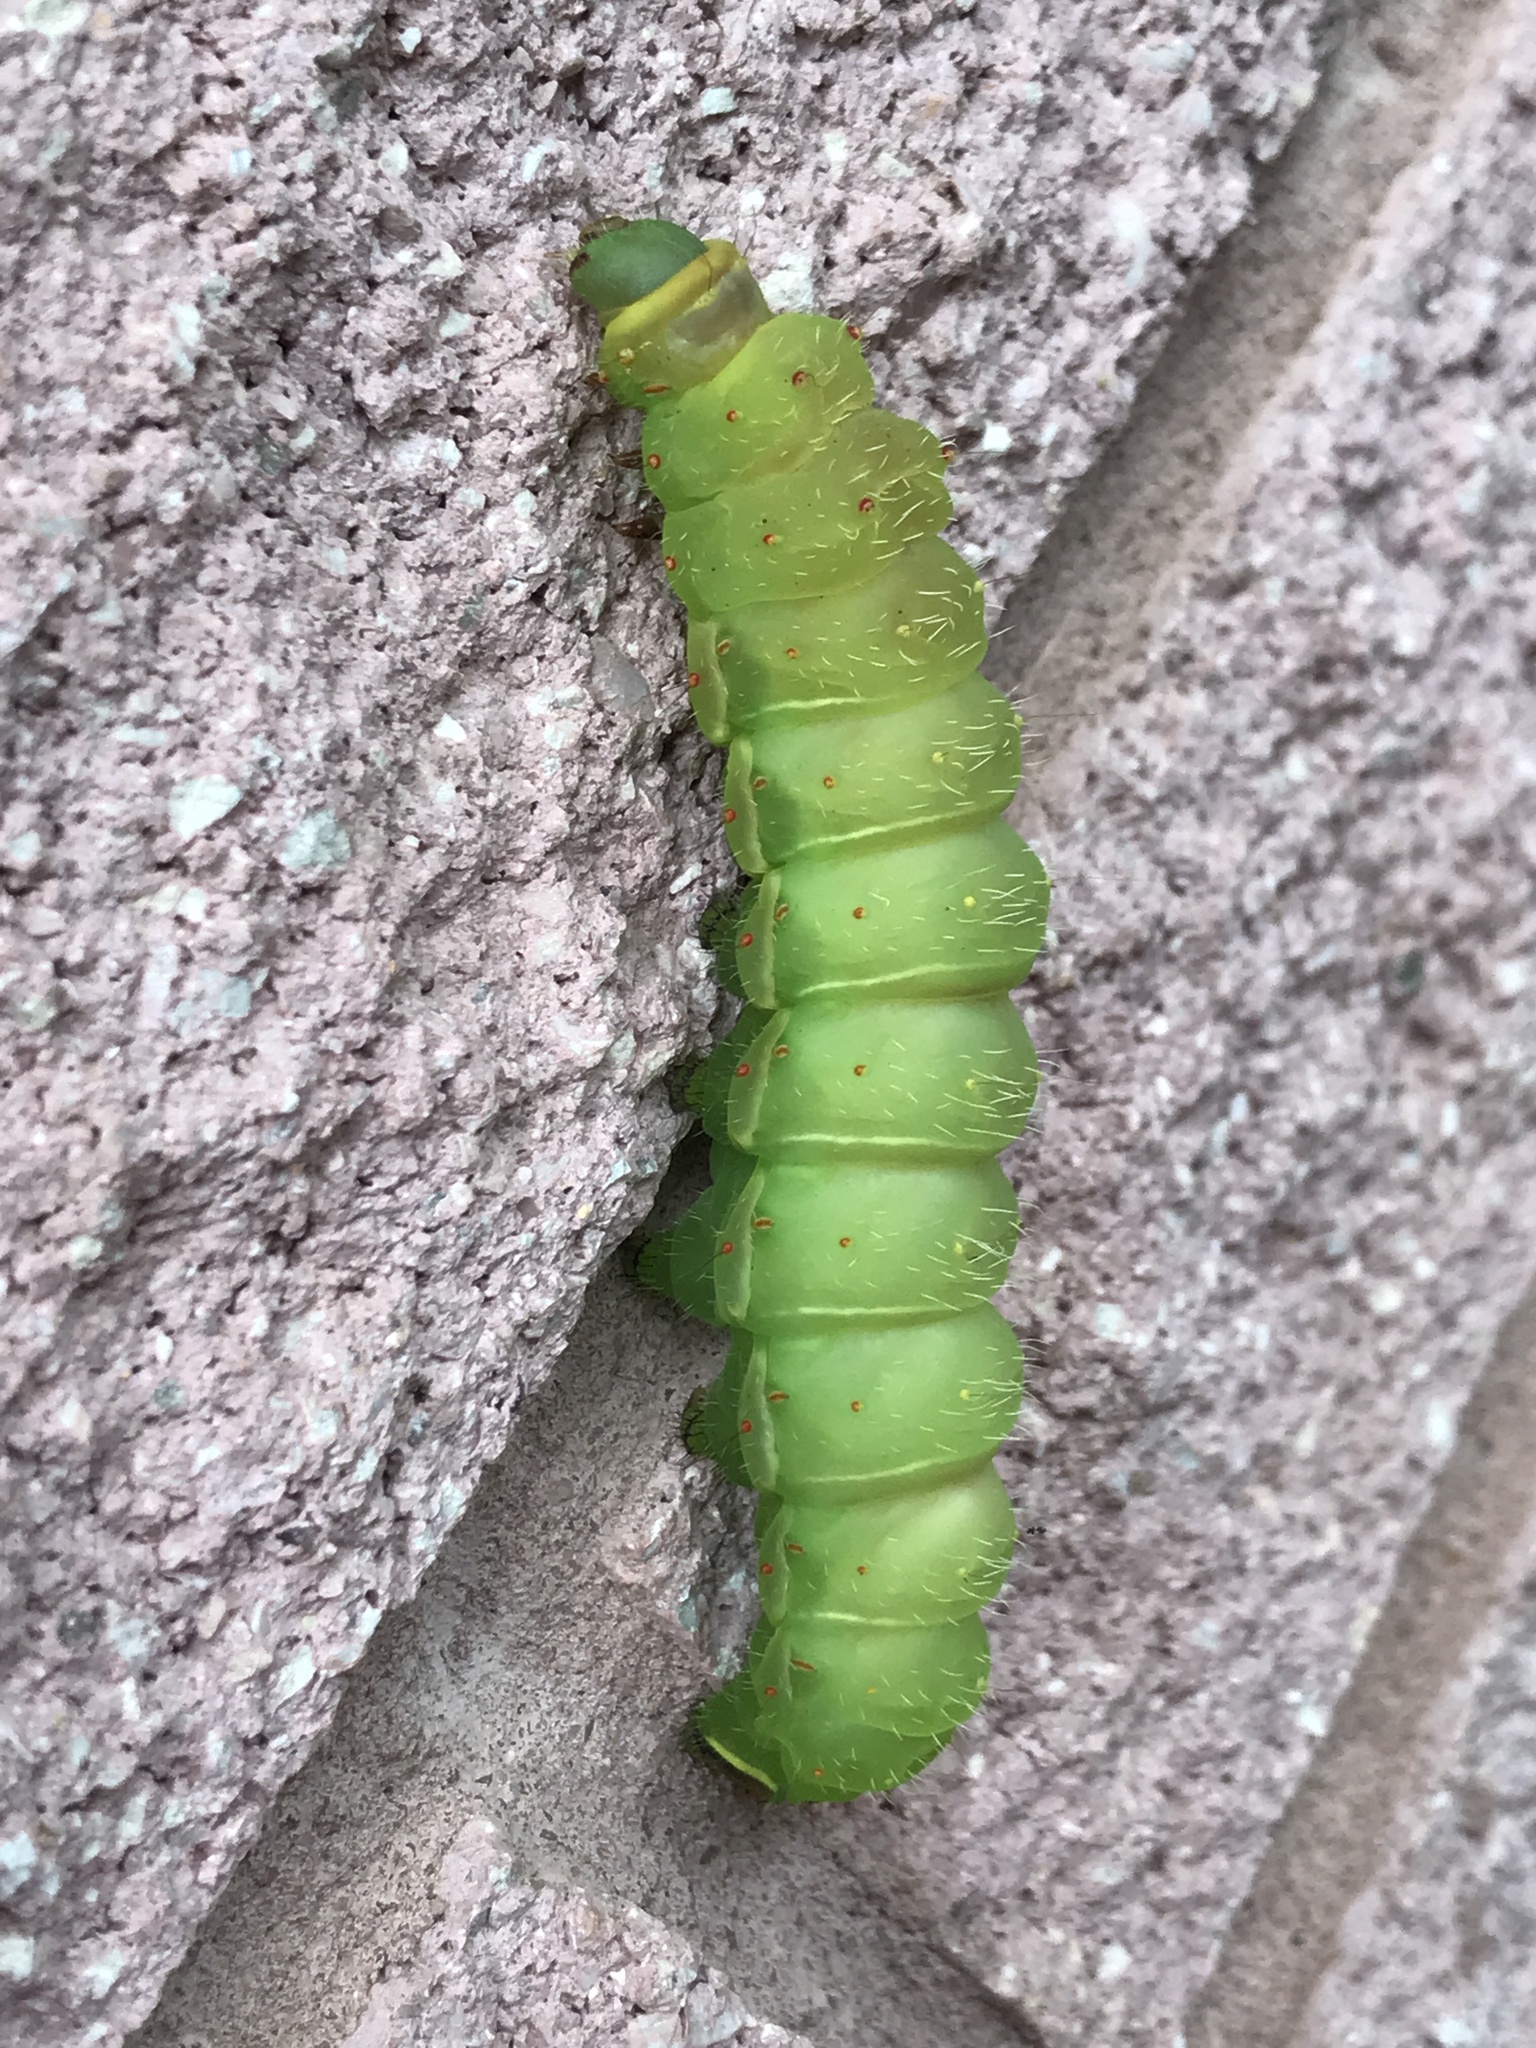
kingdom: Animalia
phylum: Arthropoda
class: Insecta
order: Lepidoptera
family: Saturniidae
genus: Actias
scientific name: Actias luna
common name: Luna moth
